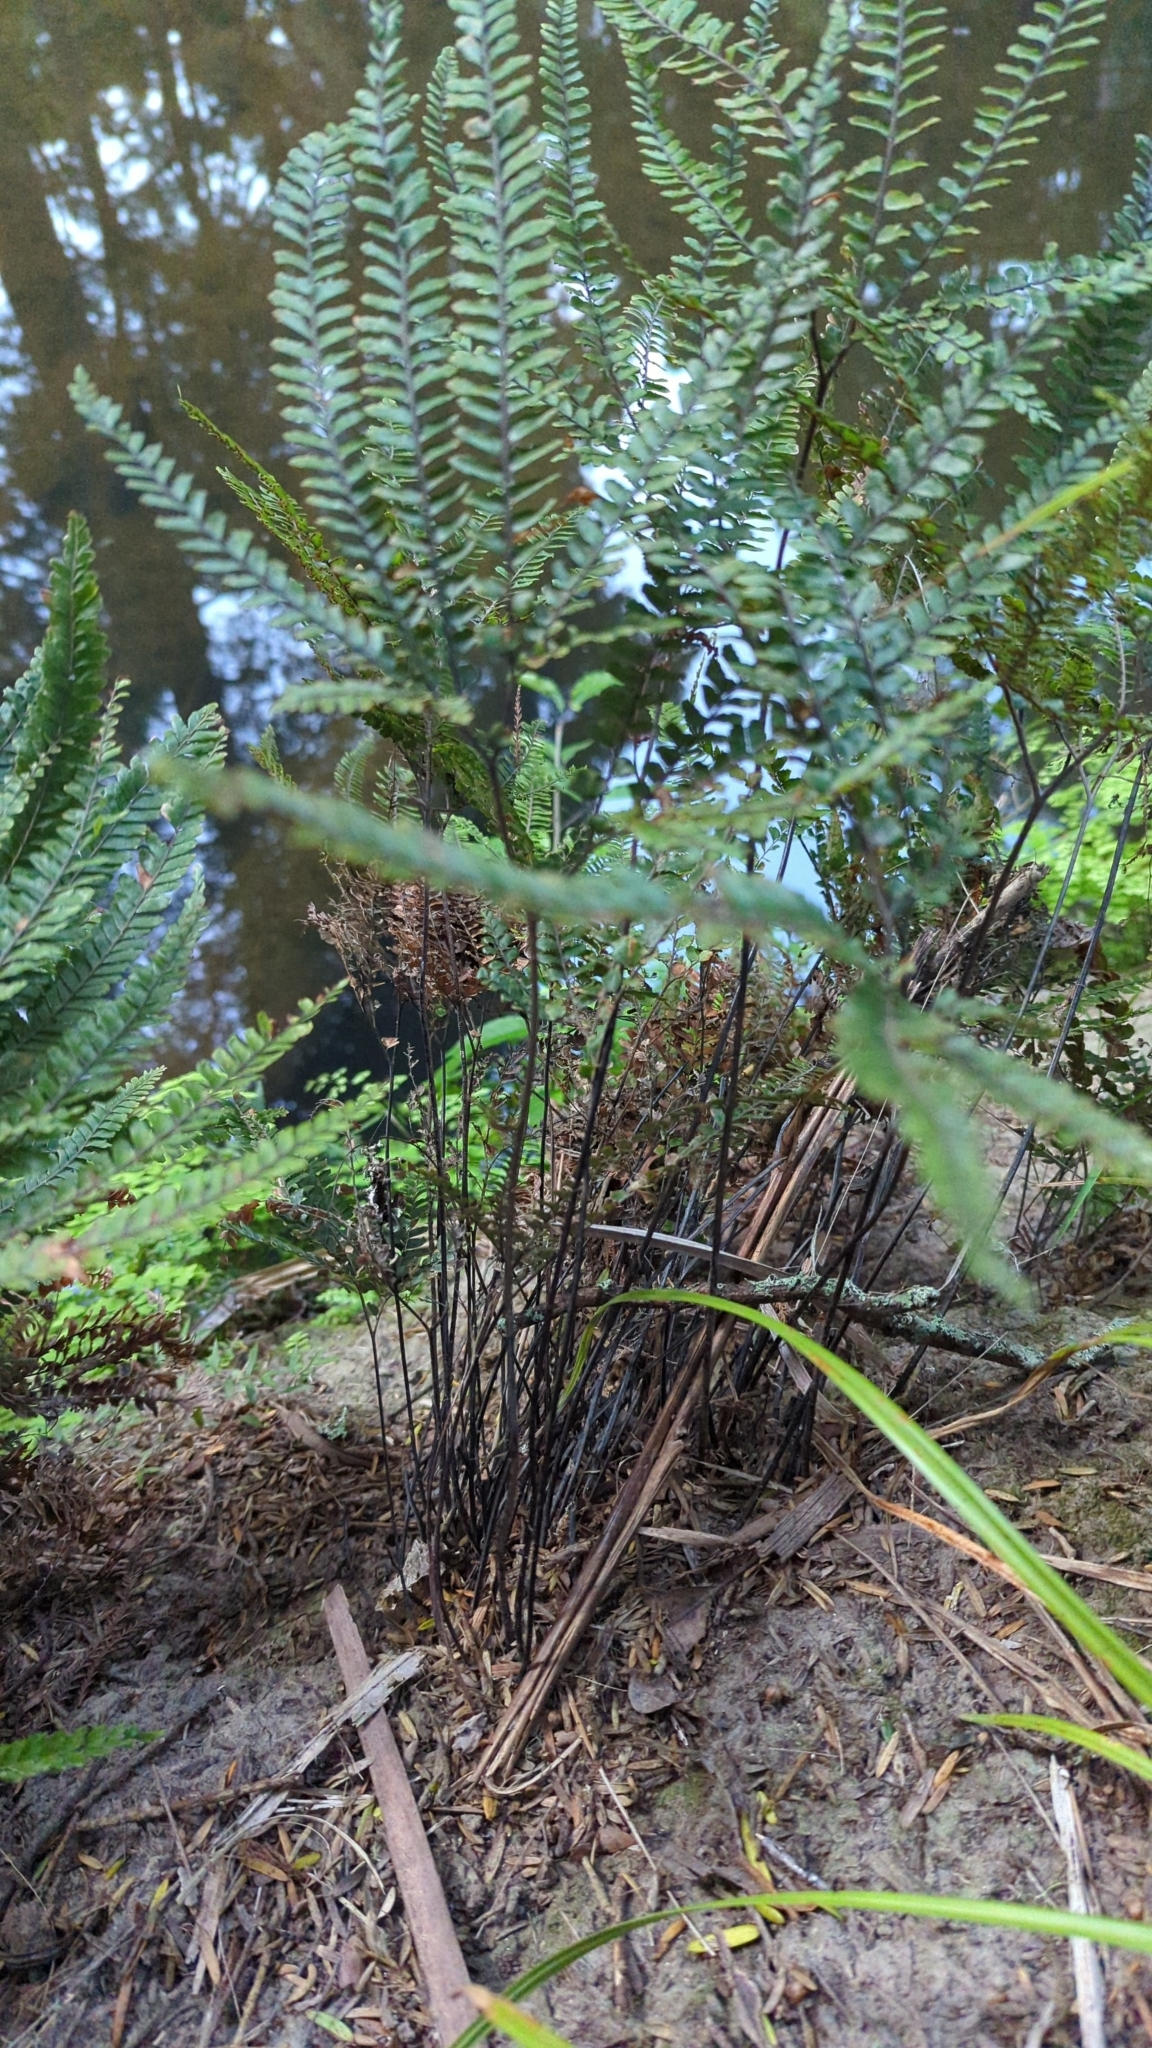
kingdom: Plantae
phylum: Tracheophyta
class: Polypodiopsida
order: Polypodiales
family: Pteridaceae
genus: Adiantum
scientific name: Adiantum hispidulum
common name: Rough maidenhair
